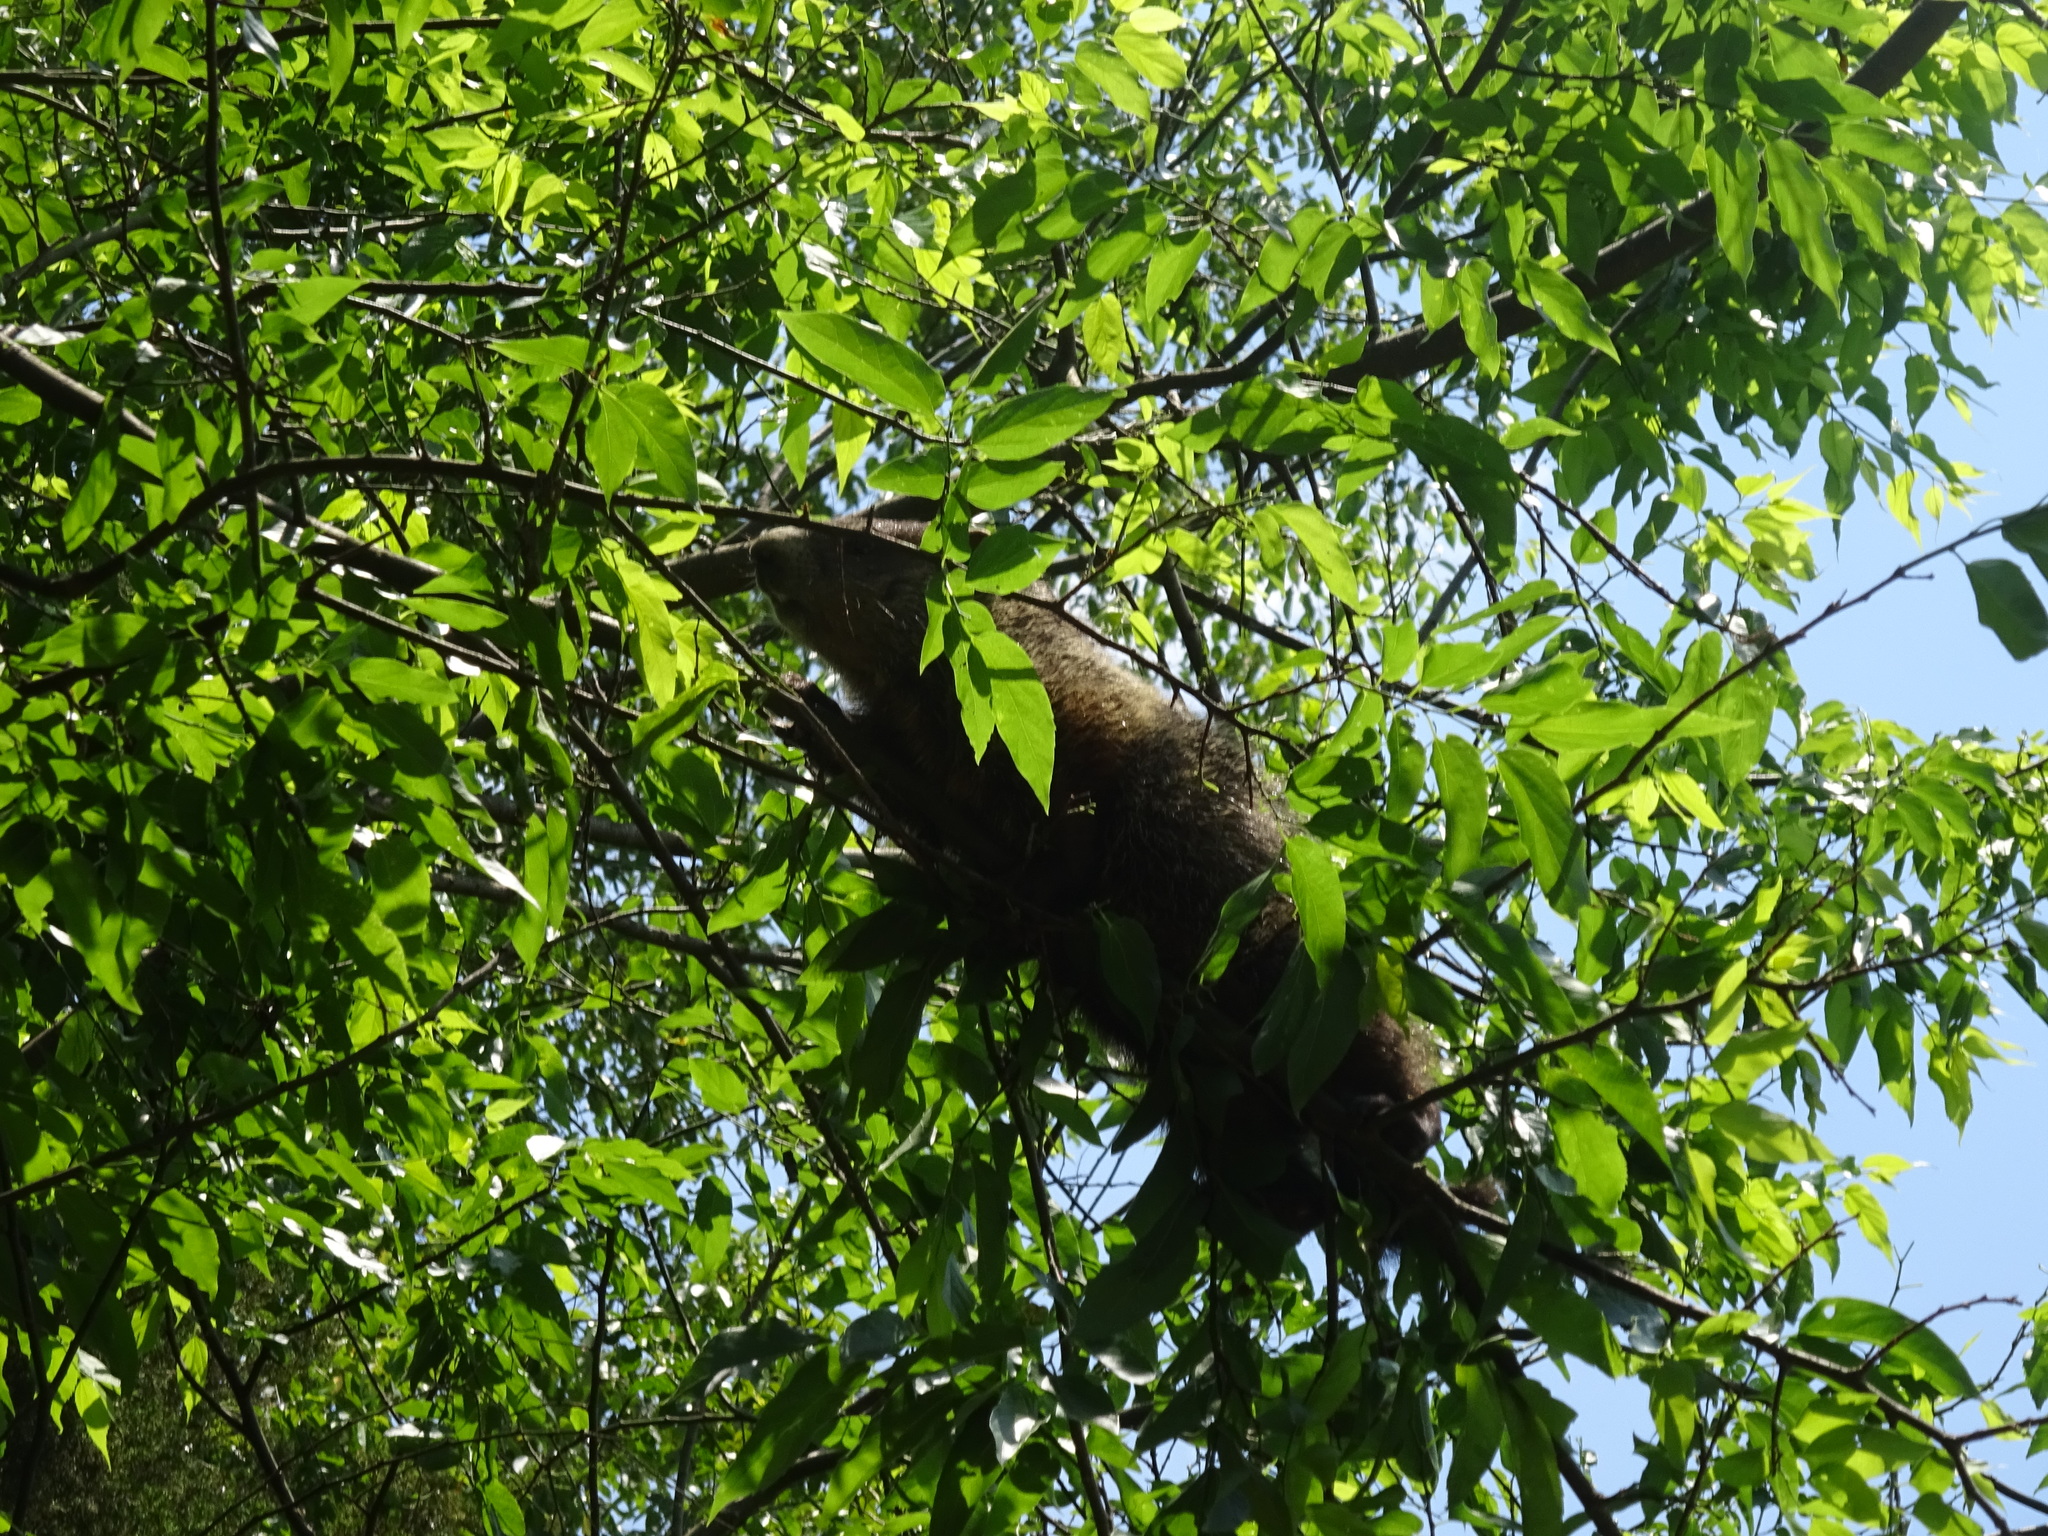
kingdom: Animalia
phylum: Chordata
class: Mammalia
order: Rodentia
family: Sciuridae
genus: Marmota
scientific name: Marmota monax
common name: Groundhog
